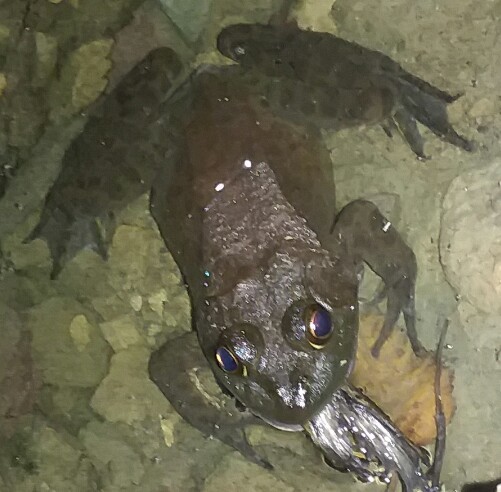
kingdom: Animalia
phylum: Chordata
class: Amphibia
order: Anura
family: Ranidae
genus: Lithobates
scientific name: Lithobates catesbeianus
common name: American bullfrog
